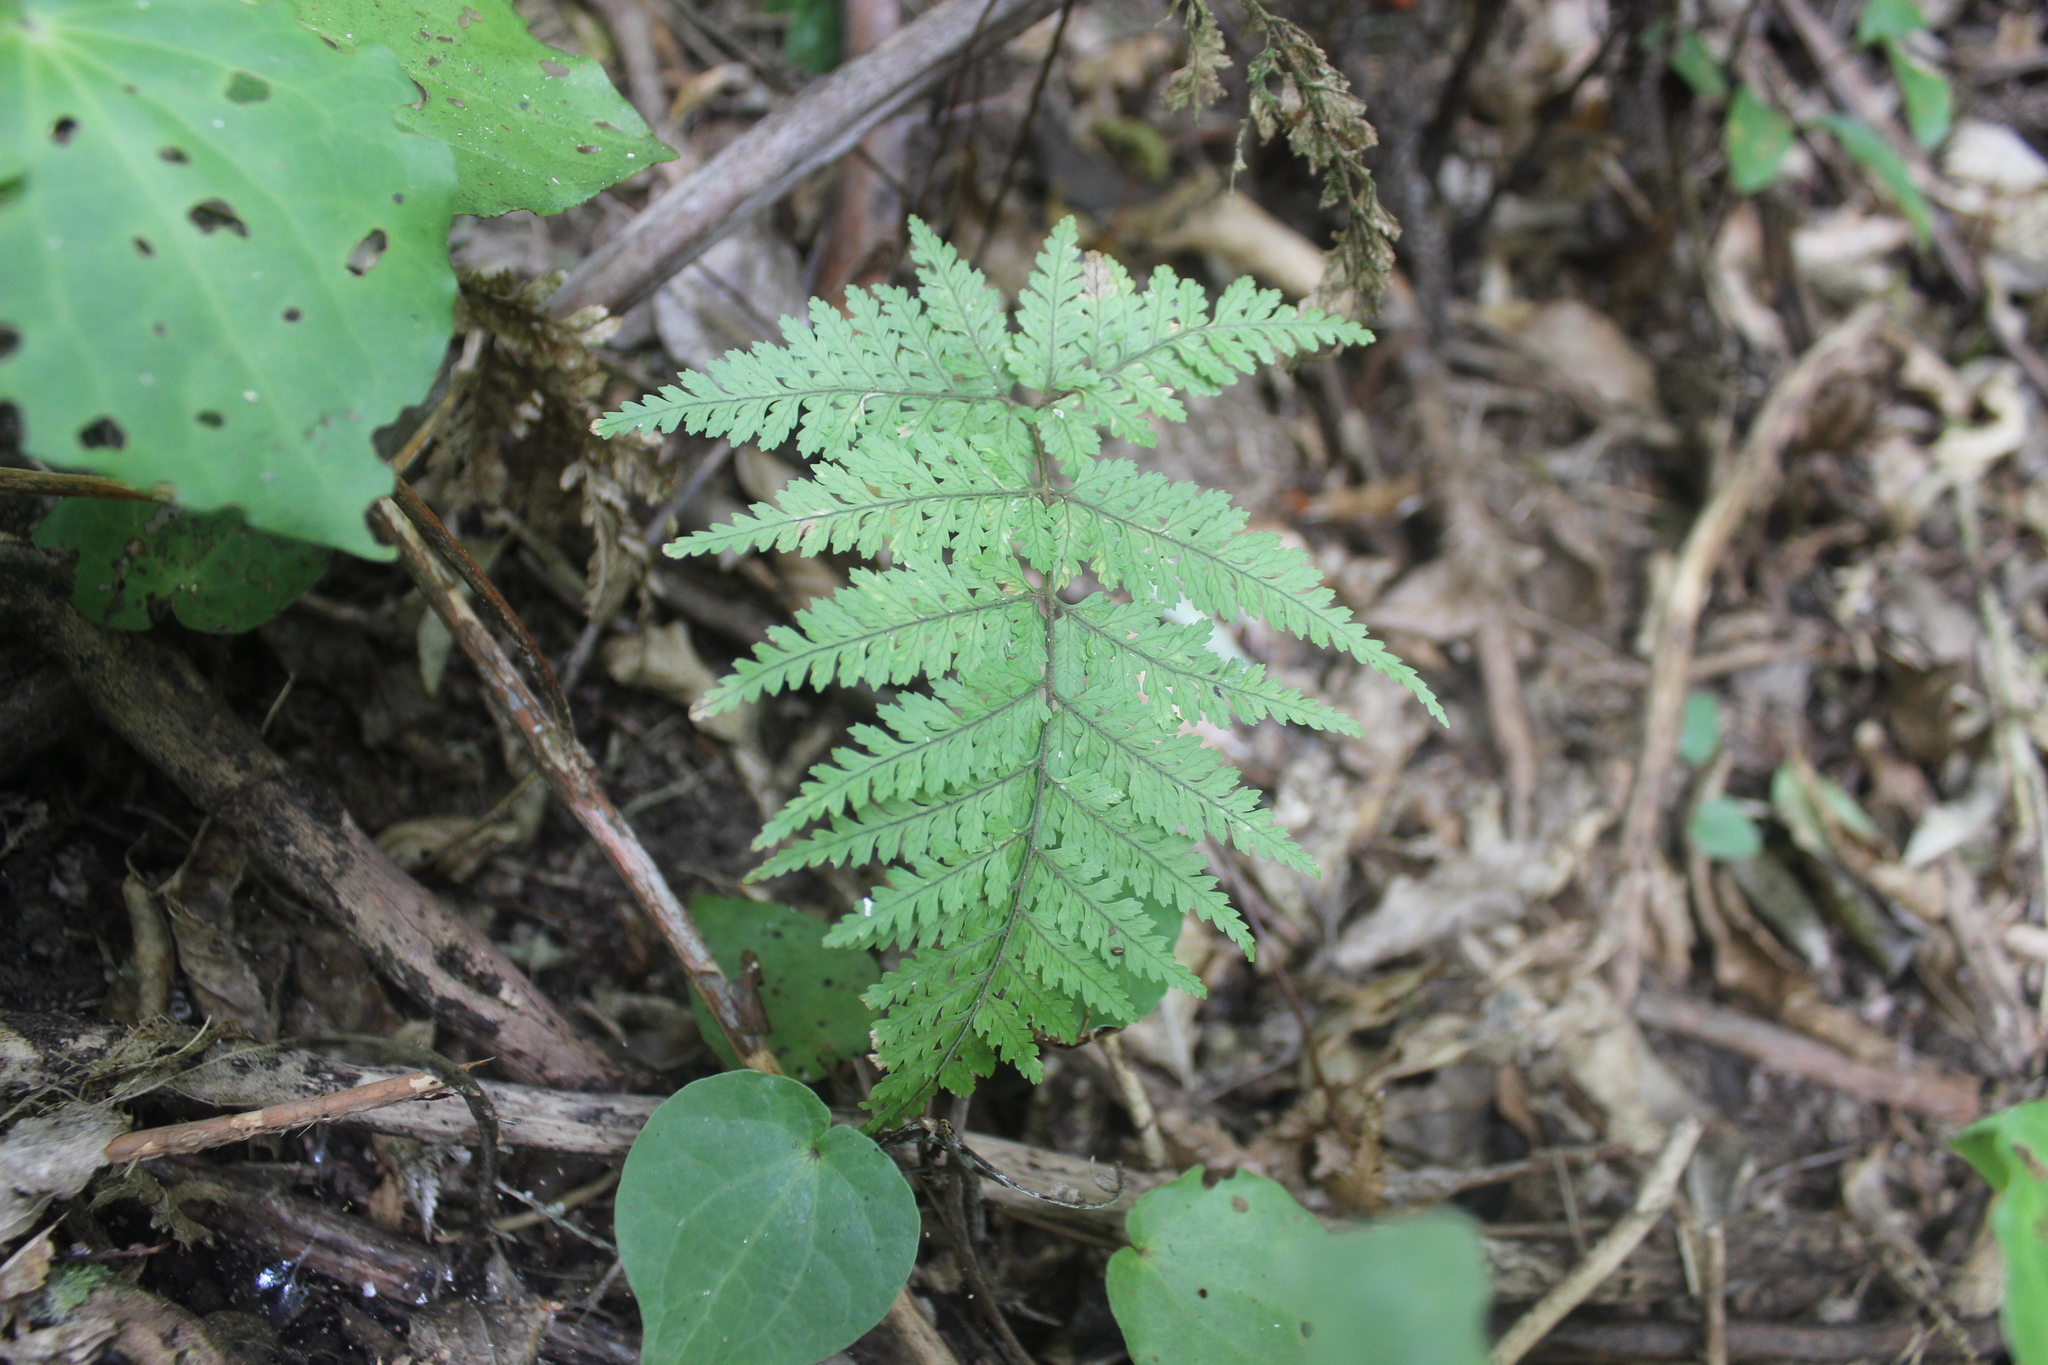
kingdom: Plantae
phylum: Tracheophyta
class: Polypodiopsida
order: Polypodiales
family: Dryopteridaceae
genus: Parapolystichum
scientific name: Parapolystichum glabellum
